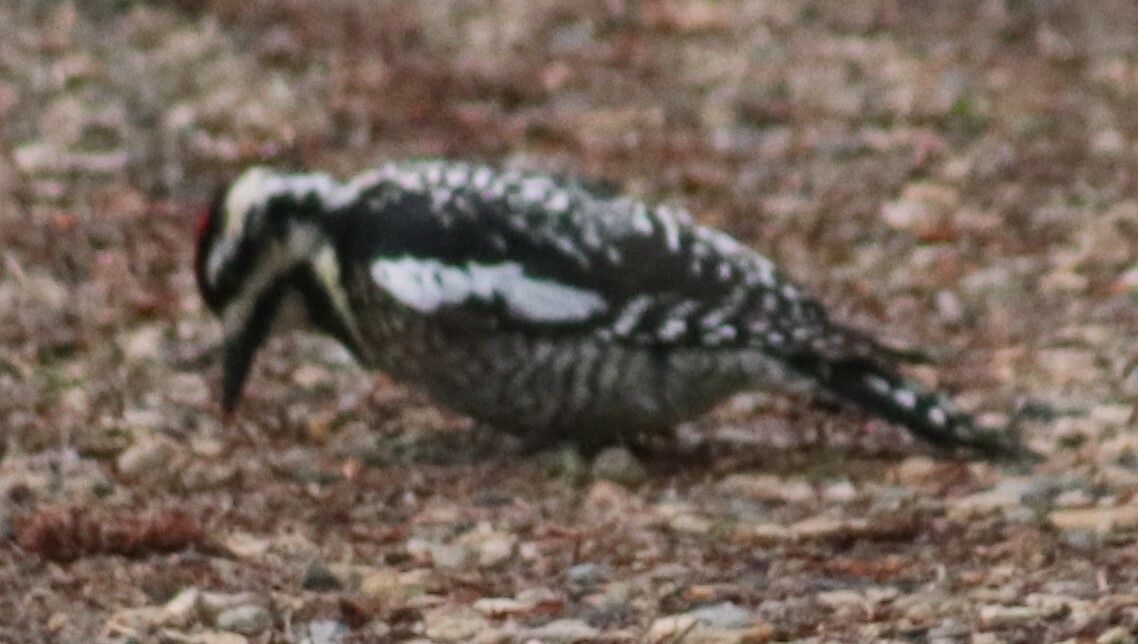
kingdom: Animalia
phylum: Chordata
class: Aves
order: Piciformes
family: Picidae
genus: Sphyrapicus
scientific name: Sphyrapicus varius
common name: Yellow-bellied sapsucker
